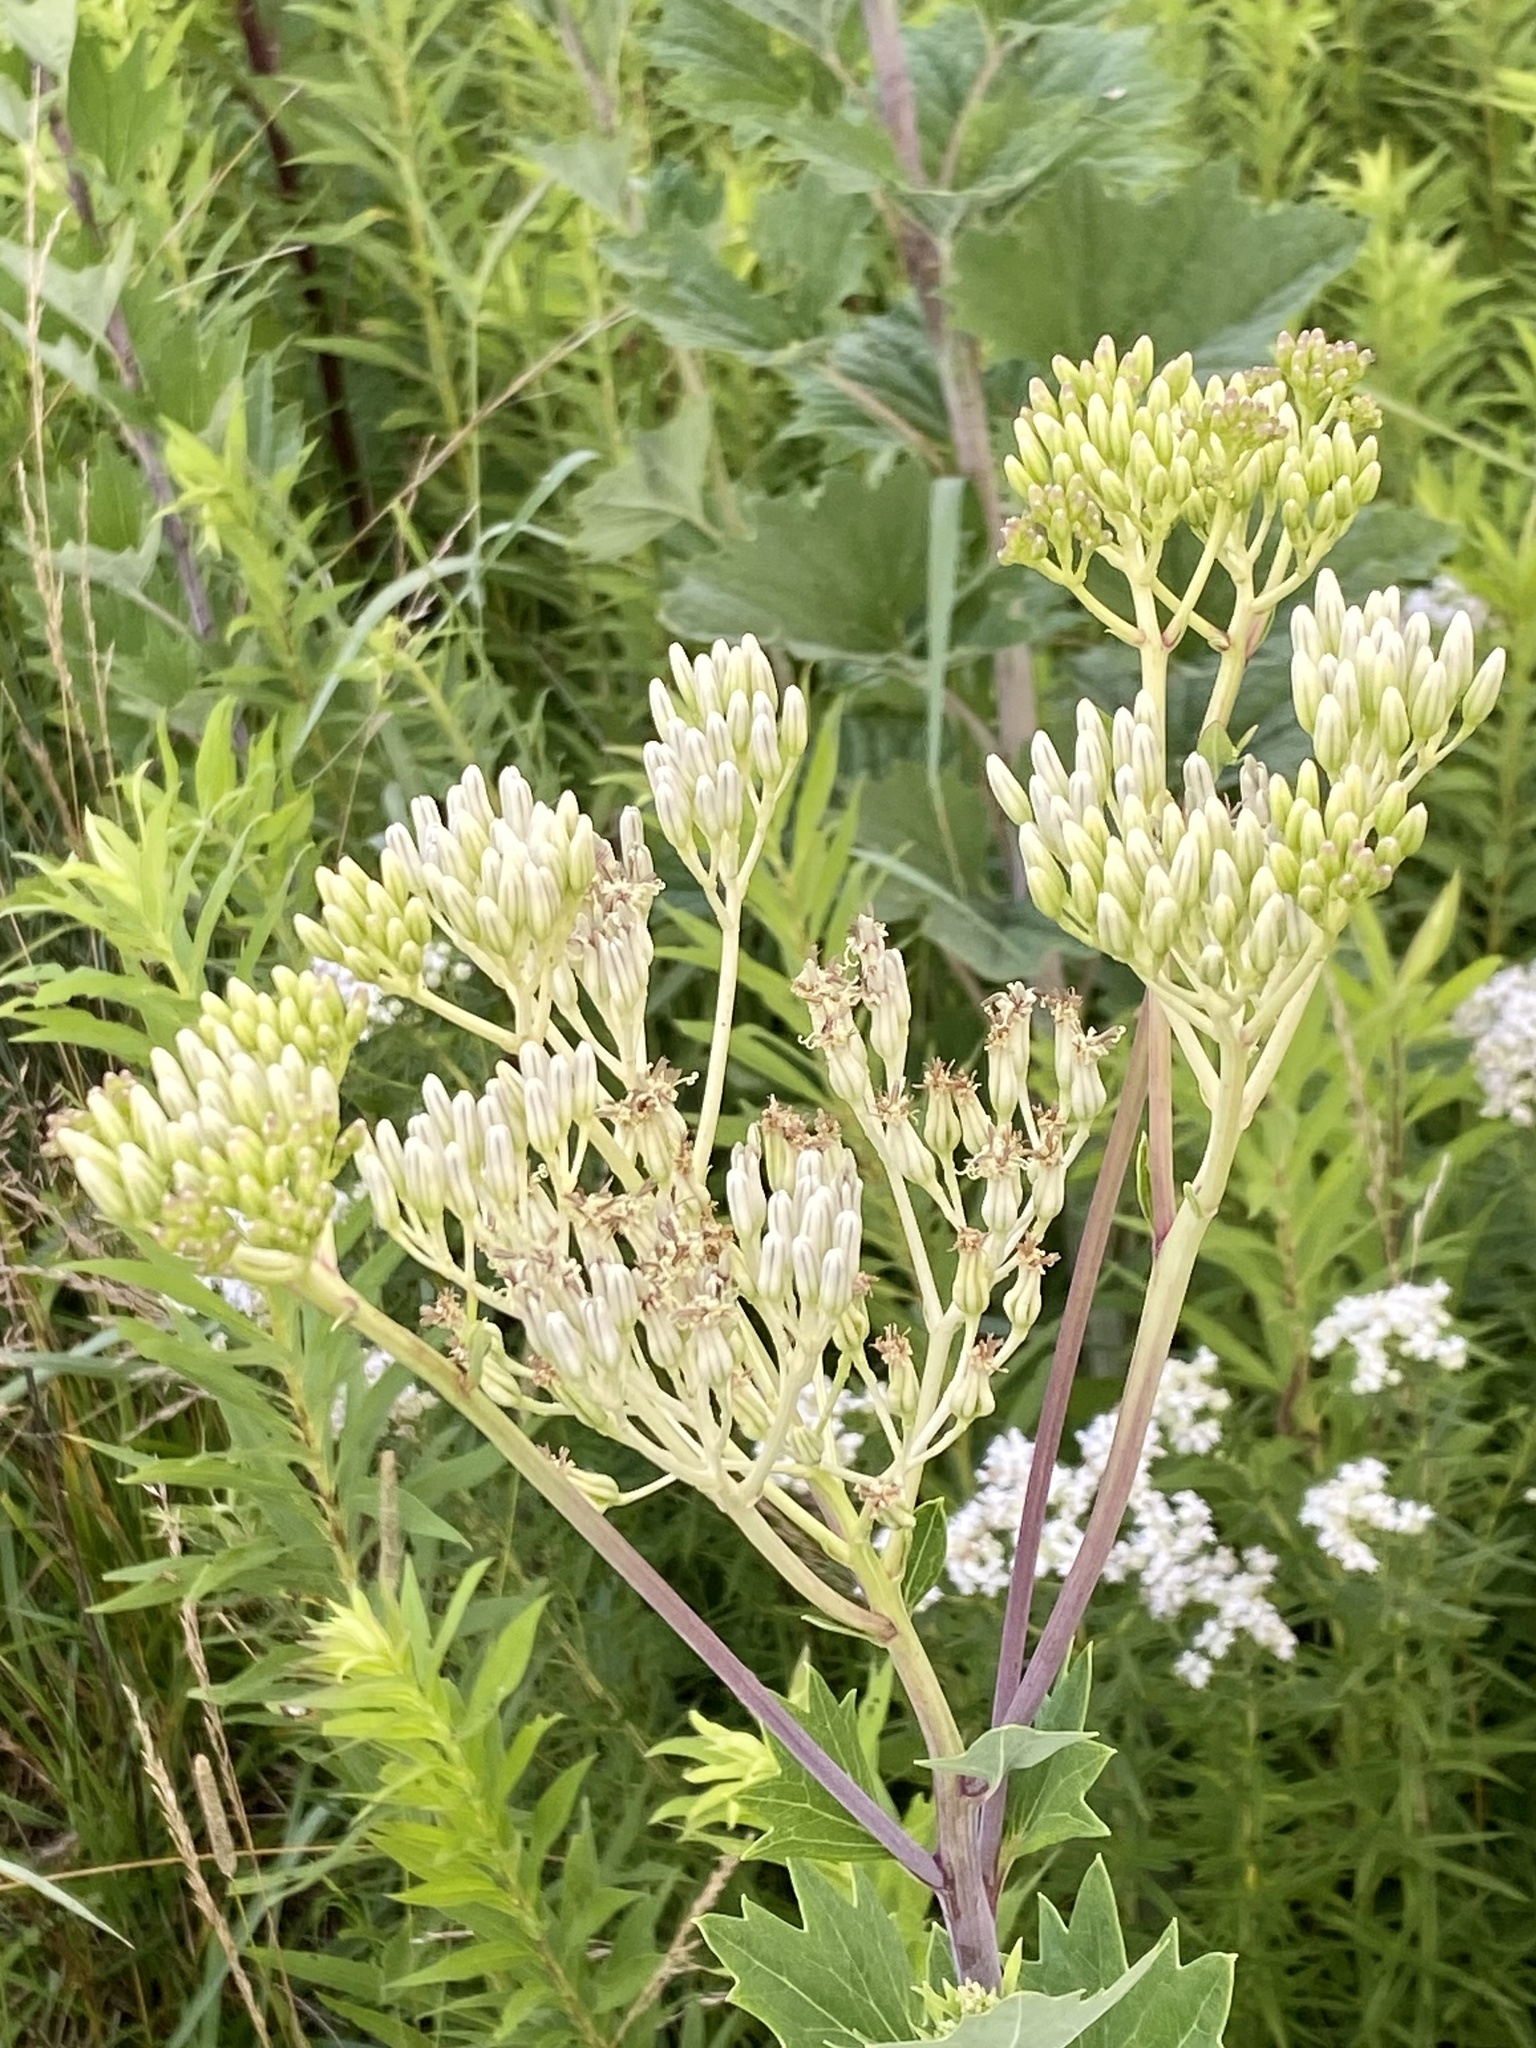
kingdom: Plantae
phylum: Tracheophyta
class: Magnoliopsida
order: Asterales
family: Asteraceae
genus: Arnoglossum
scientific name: Arnoglossum atriplicifolium
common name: Pale indian-plantain
